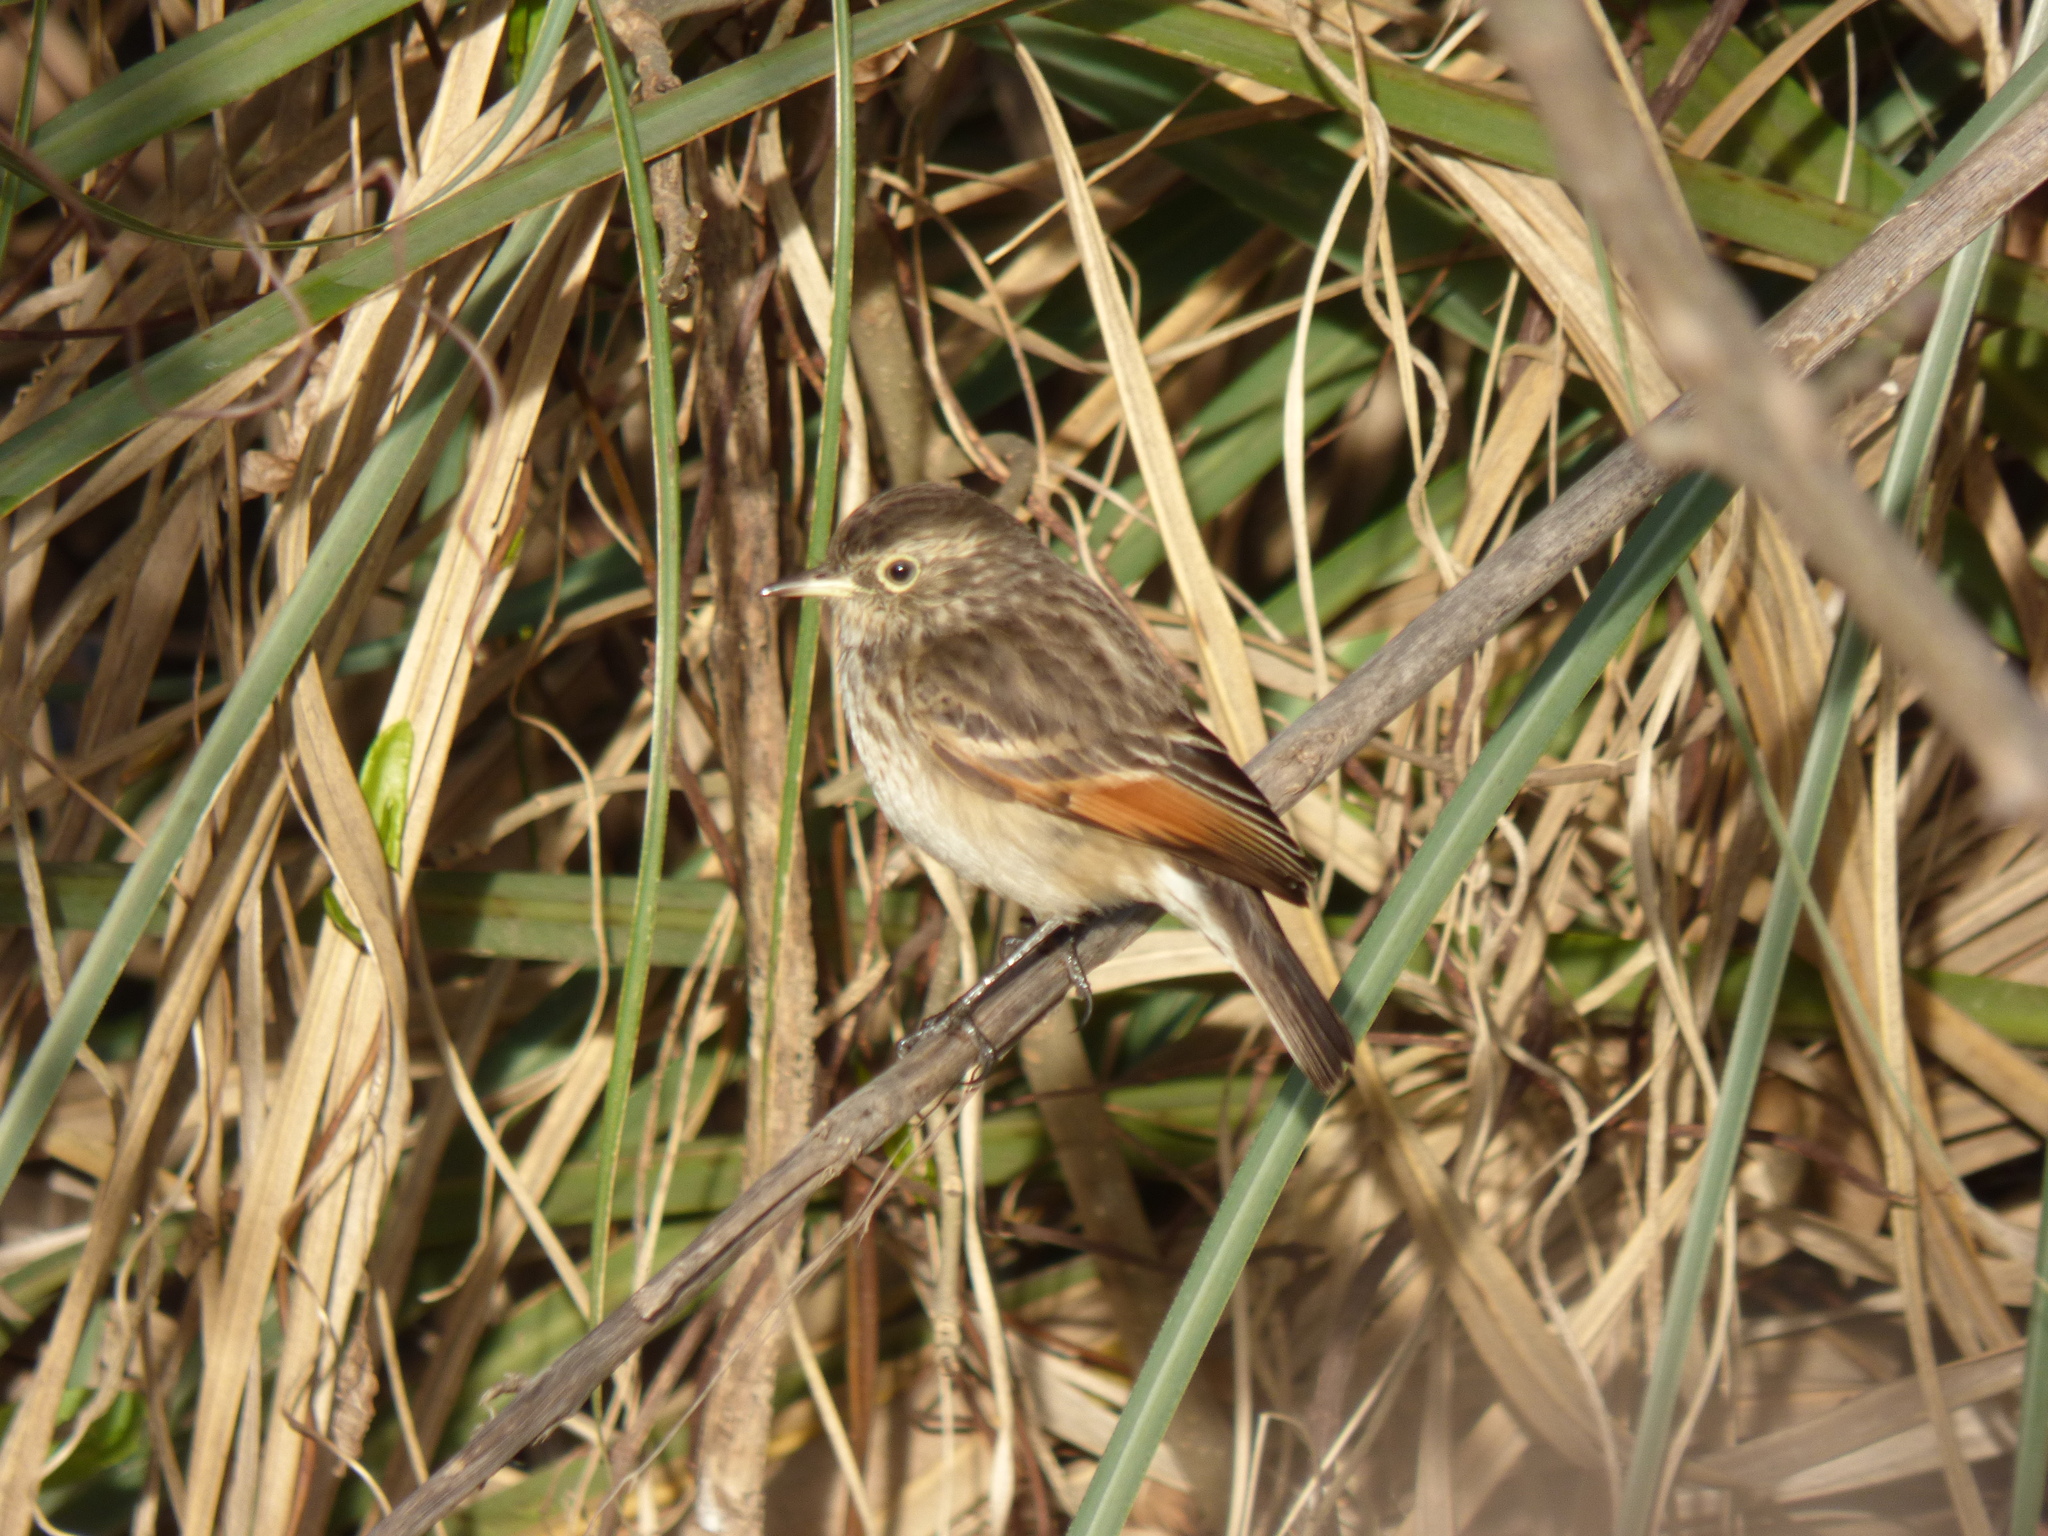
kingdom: Animalia
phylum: Chordata
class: Aves
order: Passeriformes
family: Tyrannidae
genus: Hymenops
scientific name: Hymenops perspicillatus
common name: Spectacled tyrant
